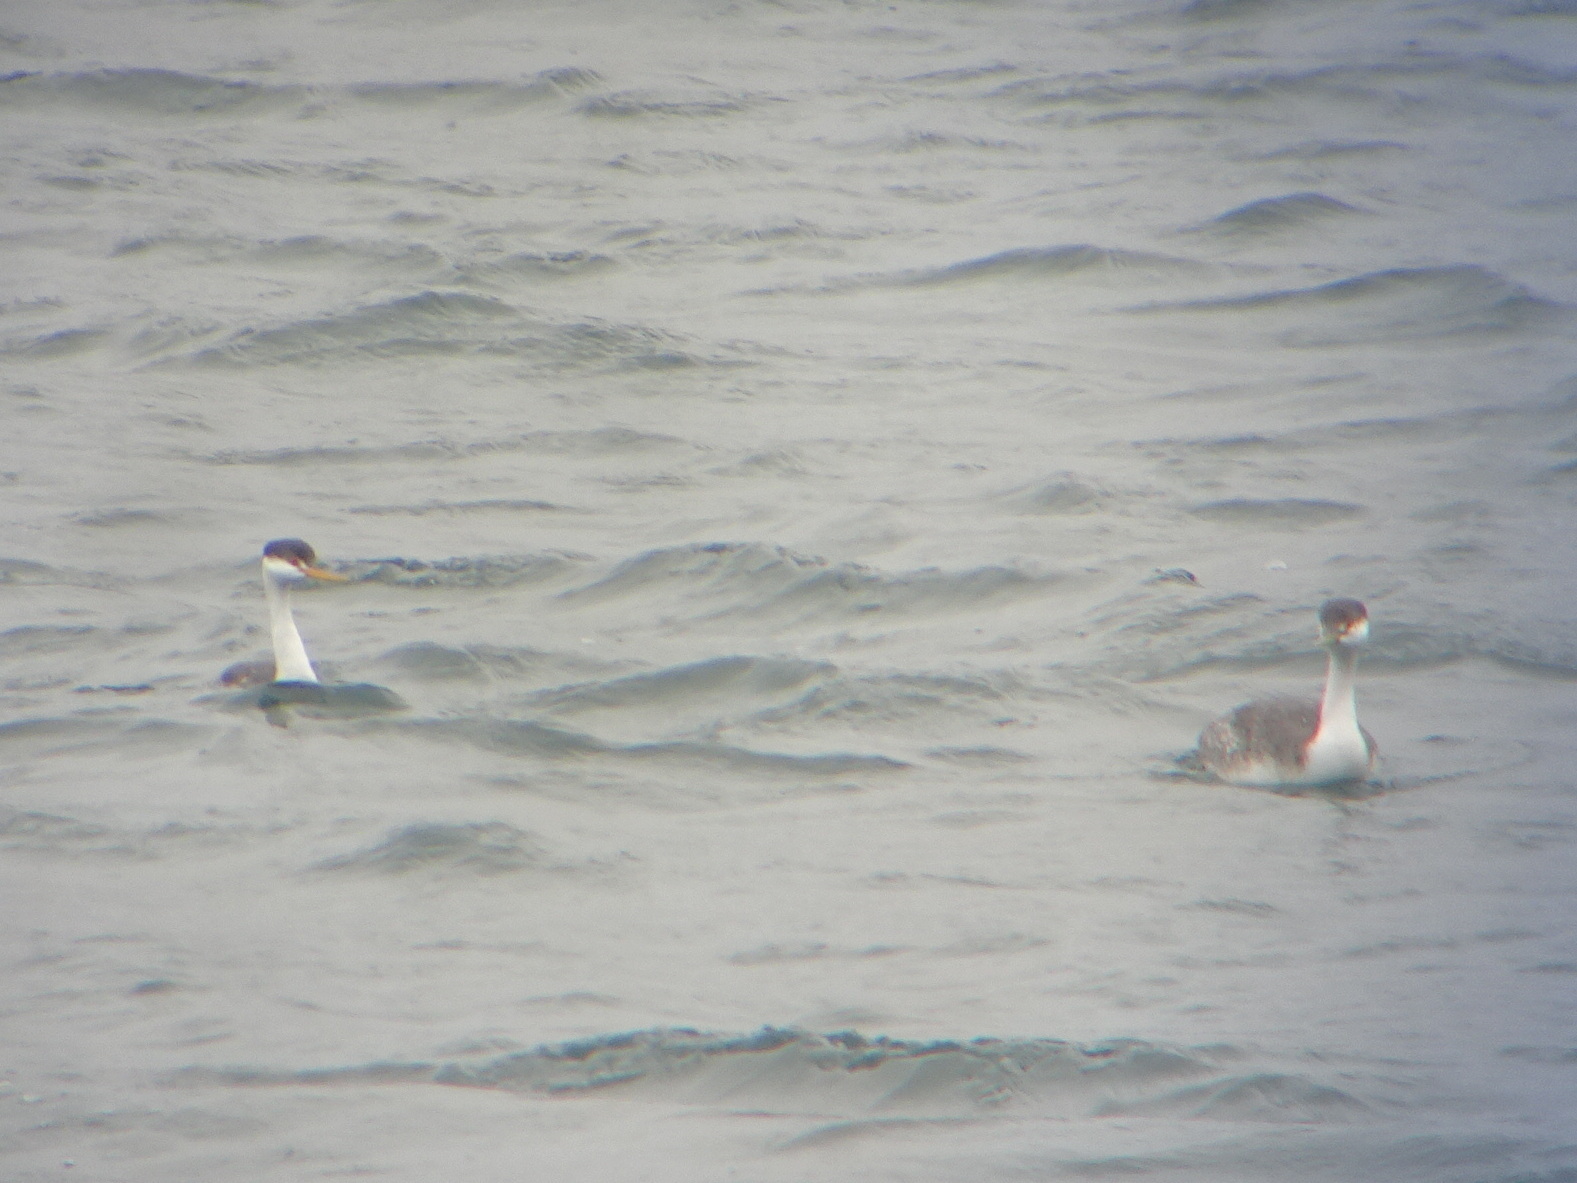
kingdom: Animalia
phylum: Chordata
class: Aves
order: Podicipediformes
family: Podicipedidae
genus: Aechmophorus
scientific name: Aechmophorus clarkii
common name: Clark's grebe
